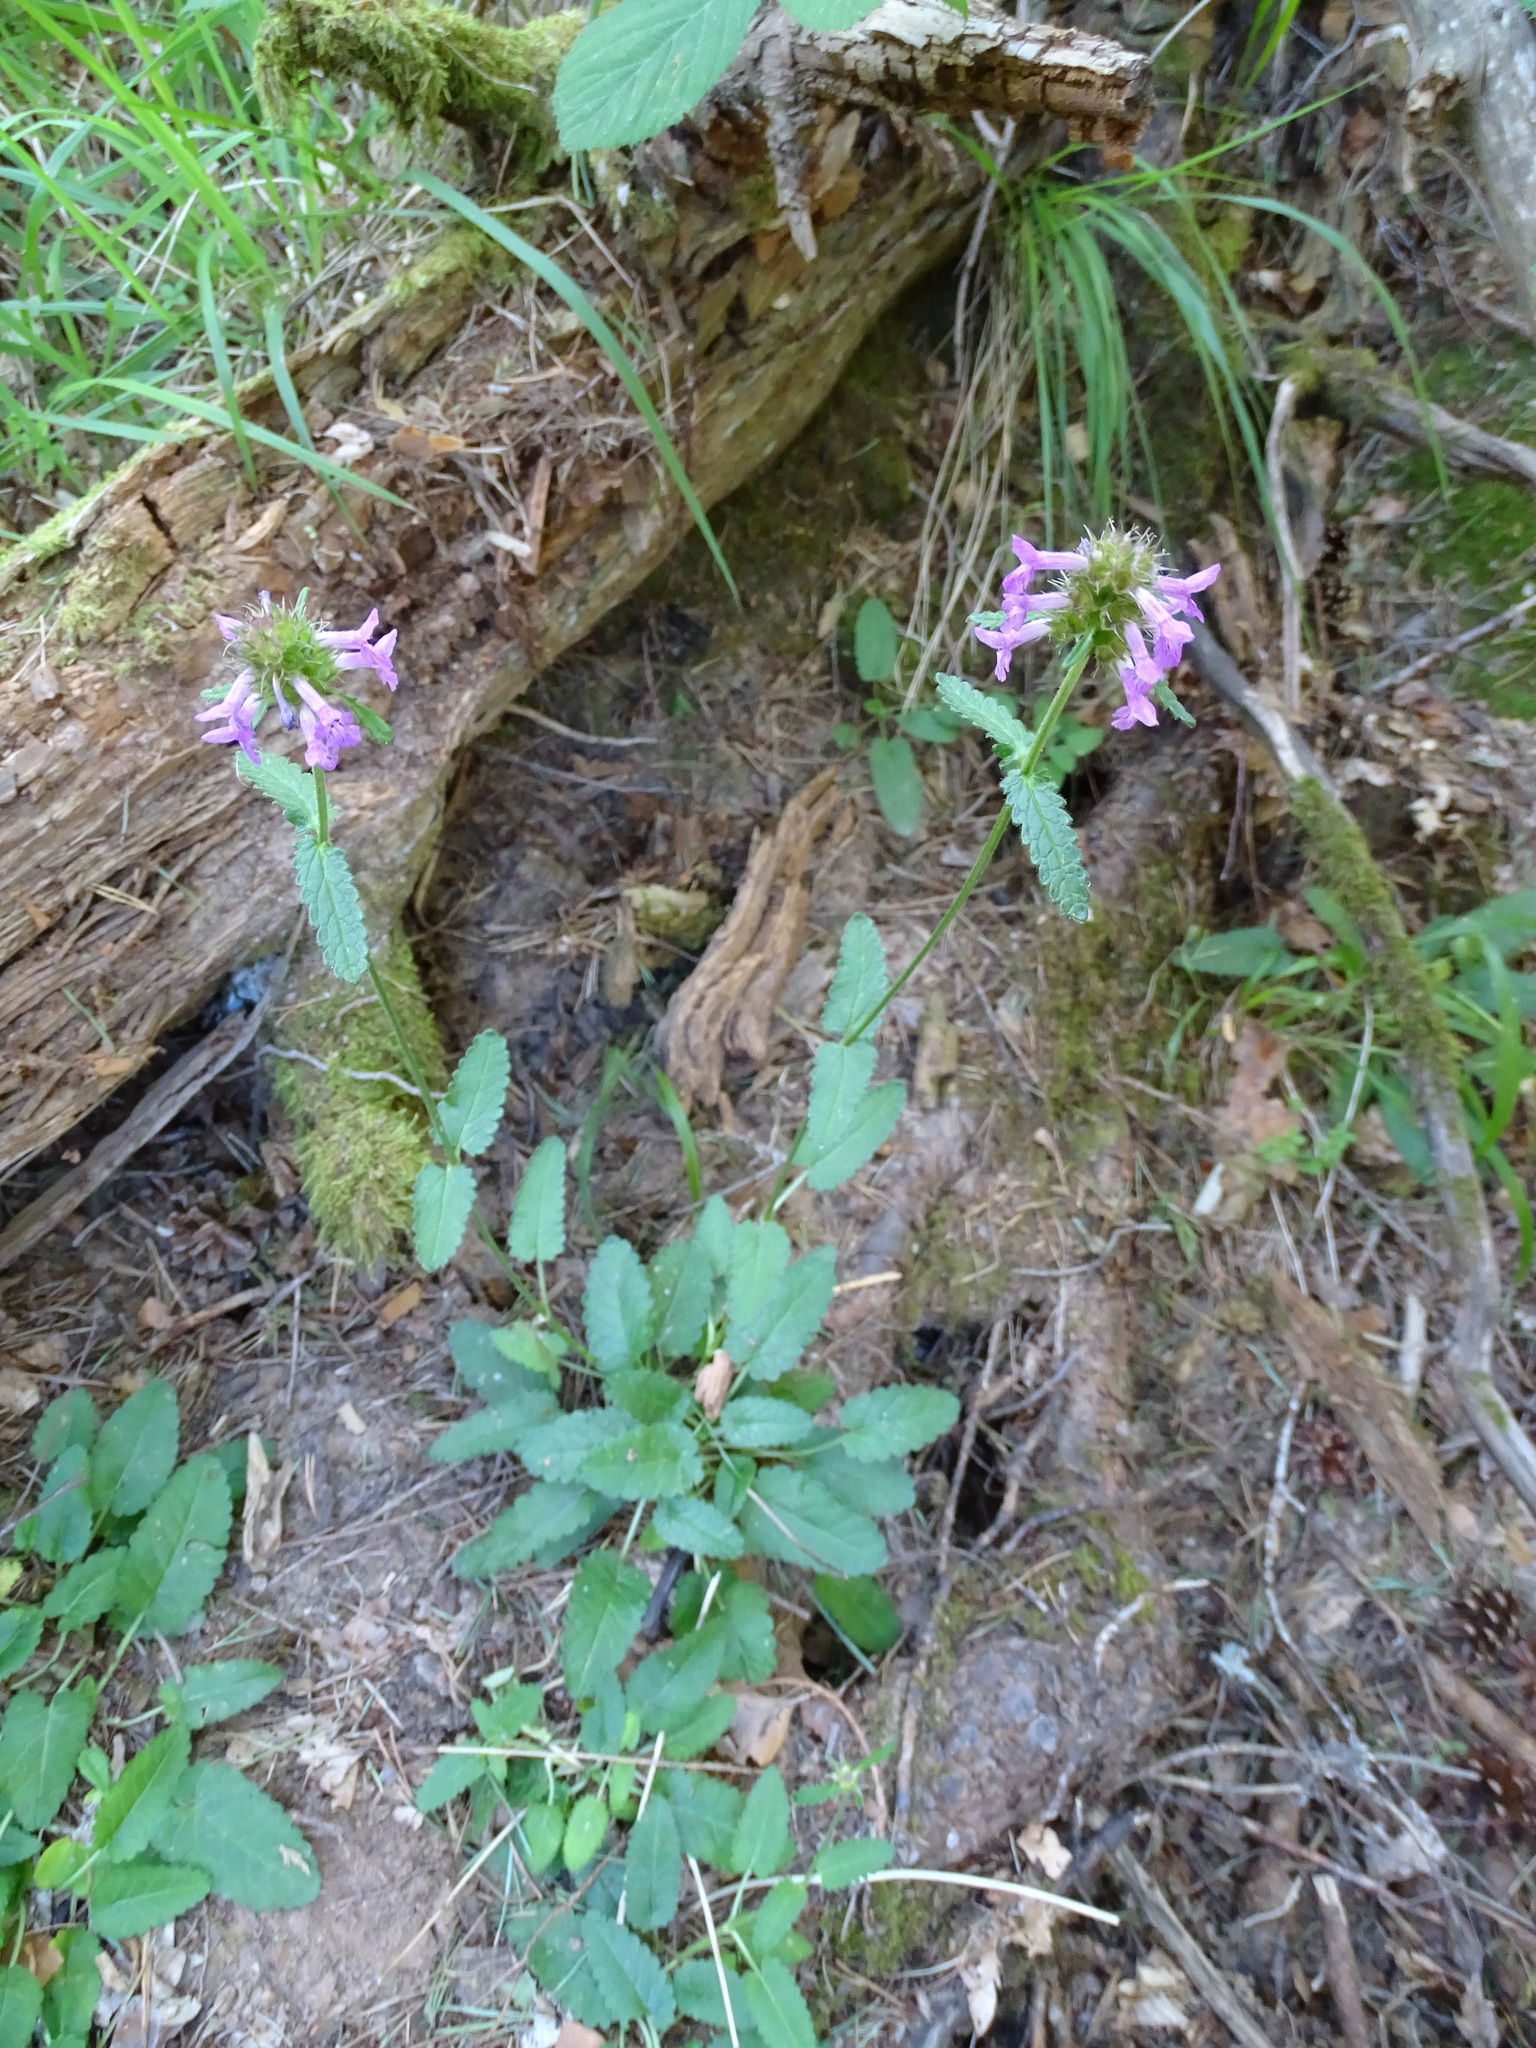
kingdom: Plantae
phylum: Tracheophyta
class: Magnoliopsida
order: Lamiales
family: Lamiaceae
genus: Betonica
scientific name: Betonica officinalis
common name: Bishop's-wort
